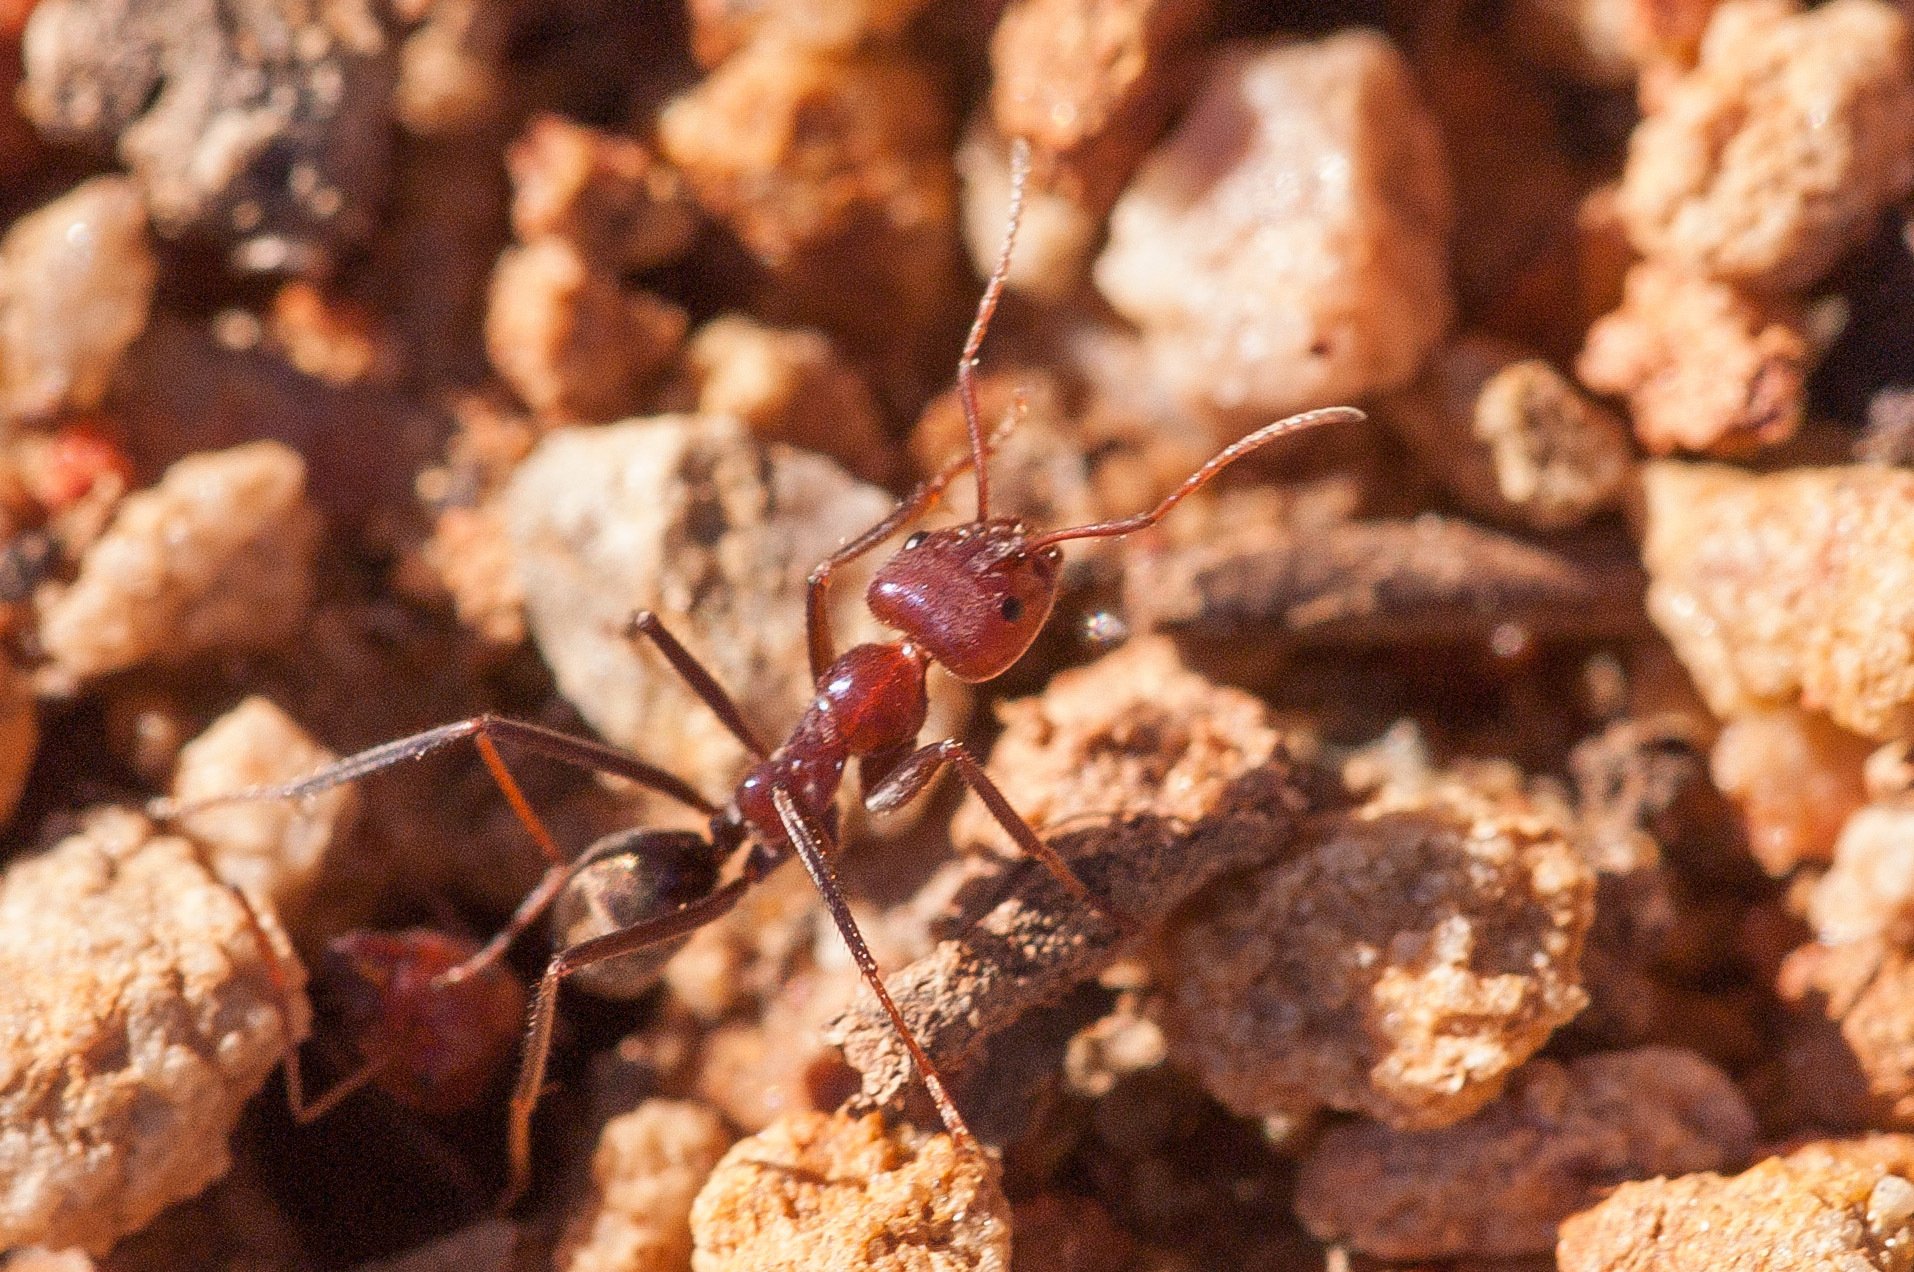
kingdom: Animalia
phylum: Arthropoda
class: Insecta
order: Hymenoptera
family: Formicidae
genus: Iridomyrmex
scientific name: Iridomyrmex purpureus
